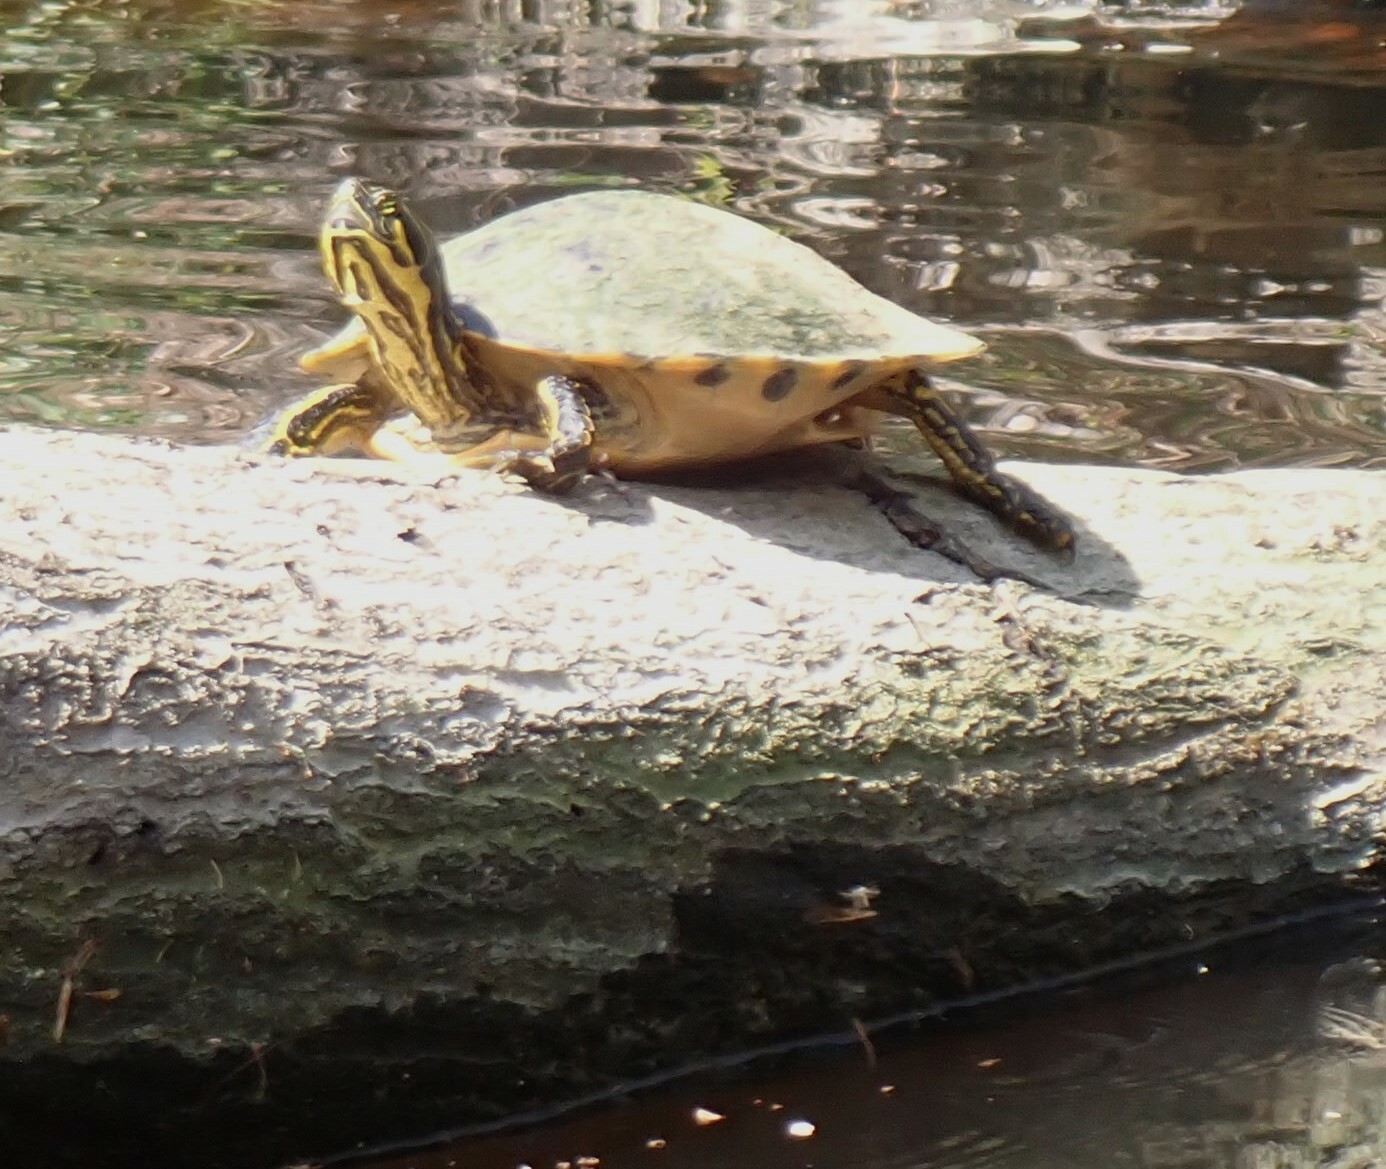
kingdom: Animalia
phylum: Chordata
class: Testudines
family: Emydidae
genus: Pseudemys
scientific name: Pseudemys concinna
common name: Eastern river cooter
